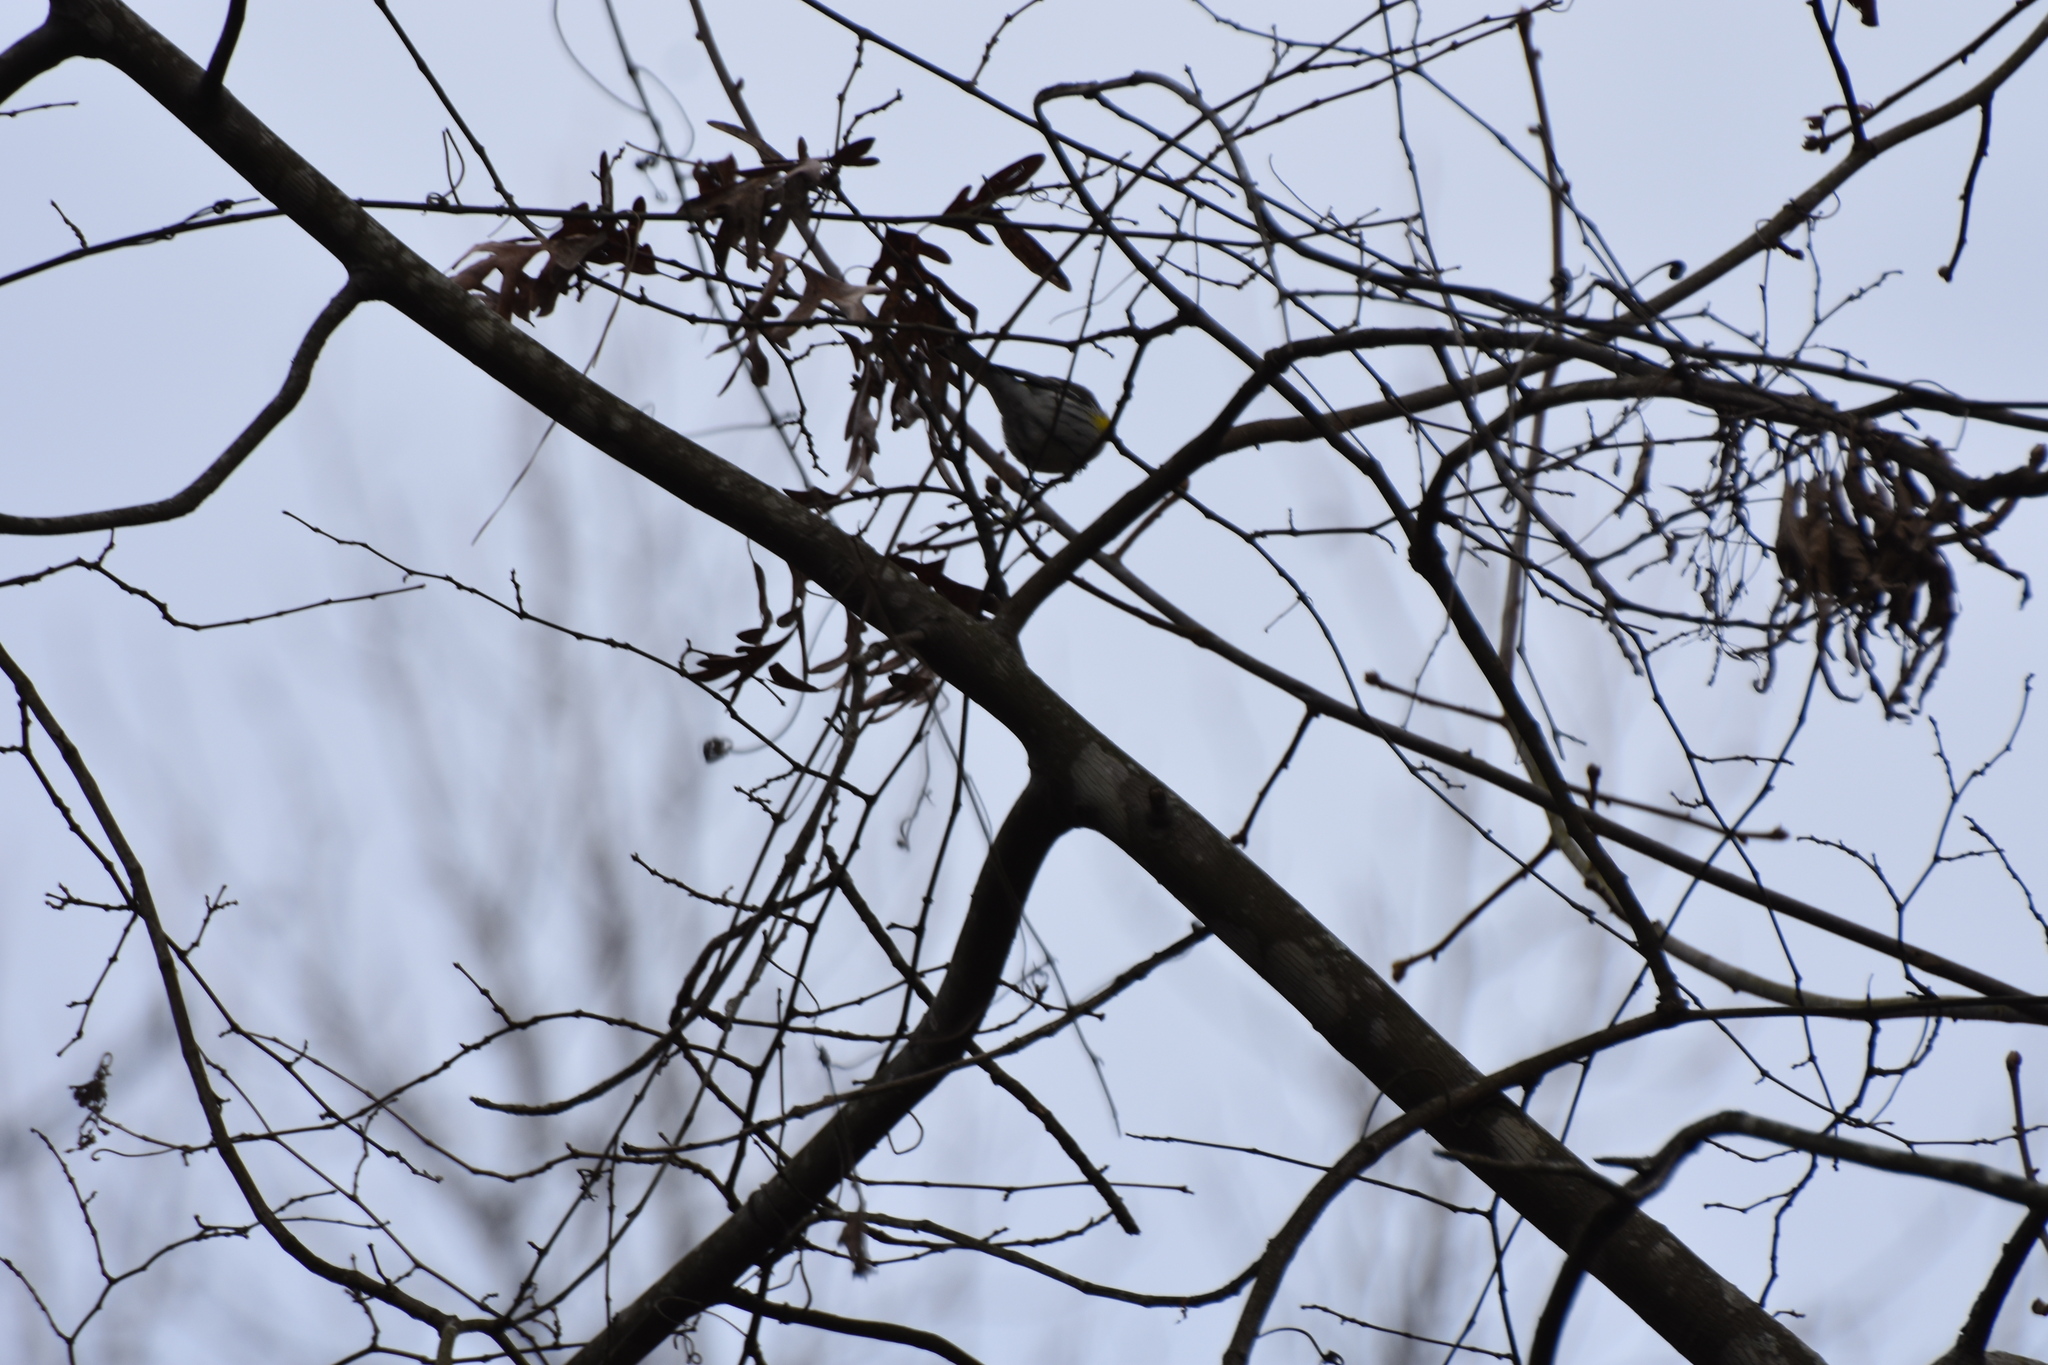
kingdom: Animalia
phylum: Chordata
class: Aves
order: Passeriformes
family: Parulidae
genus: Setophaga
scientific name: Setophaga coronata
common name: Myrtle warbler
